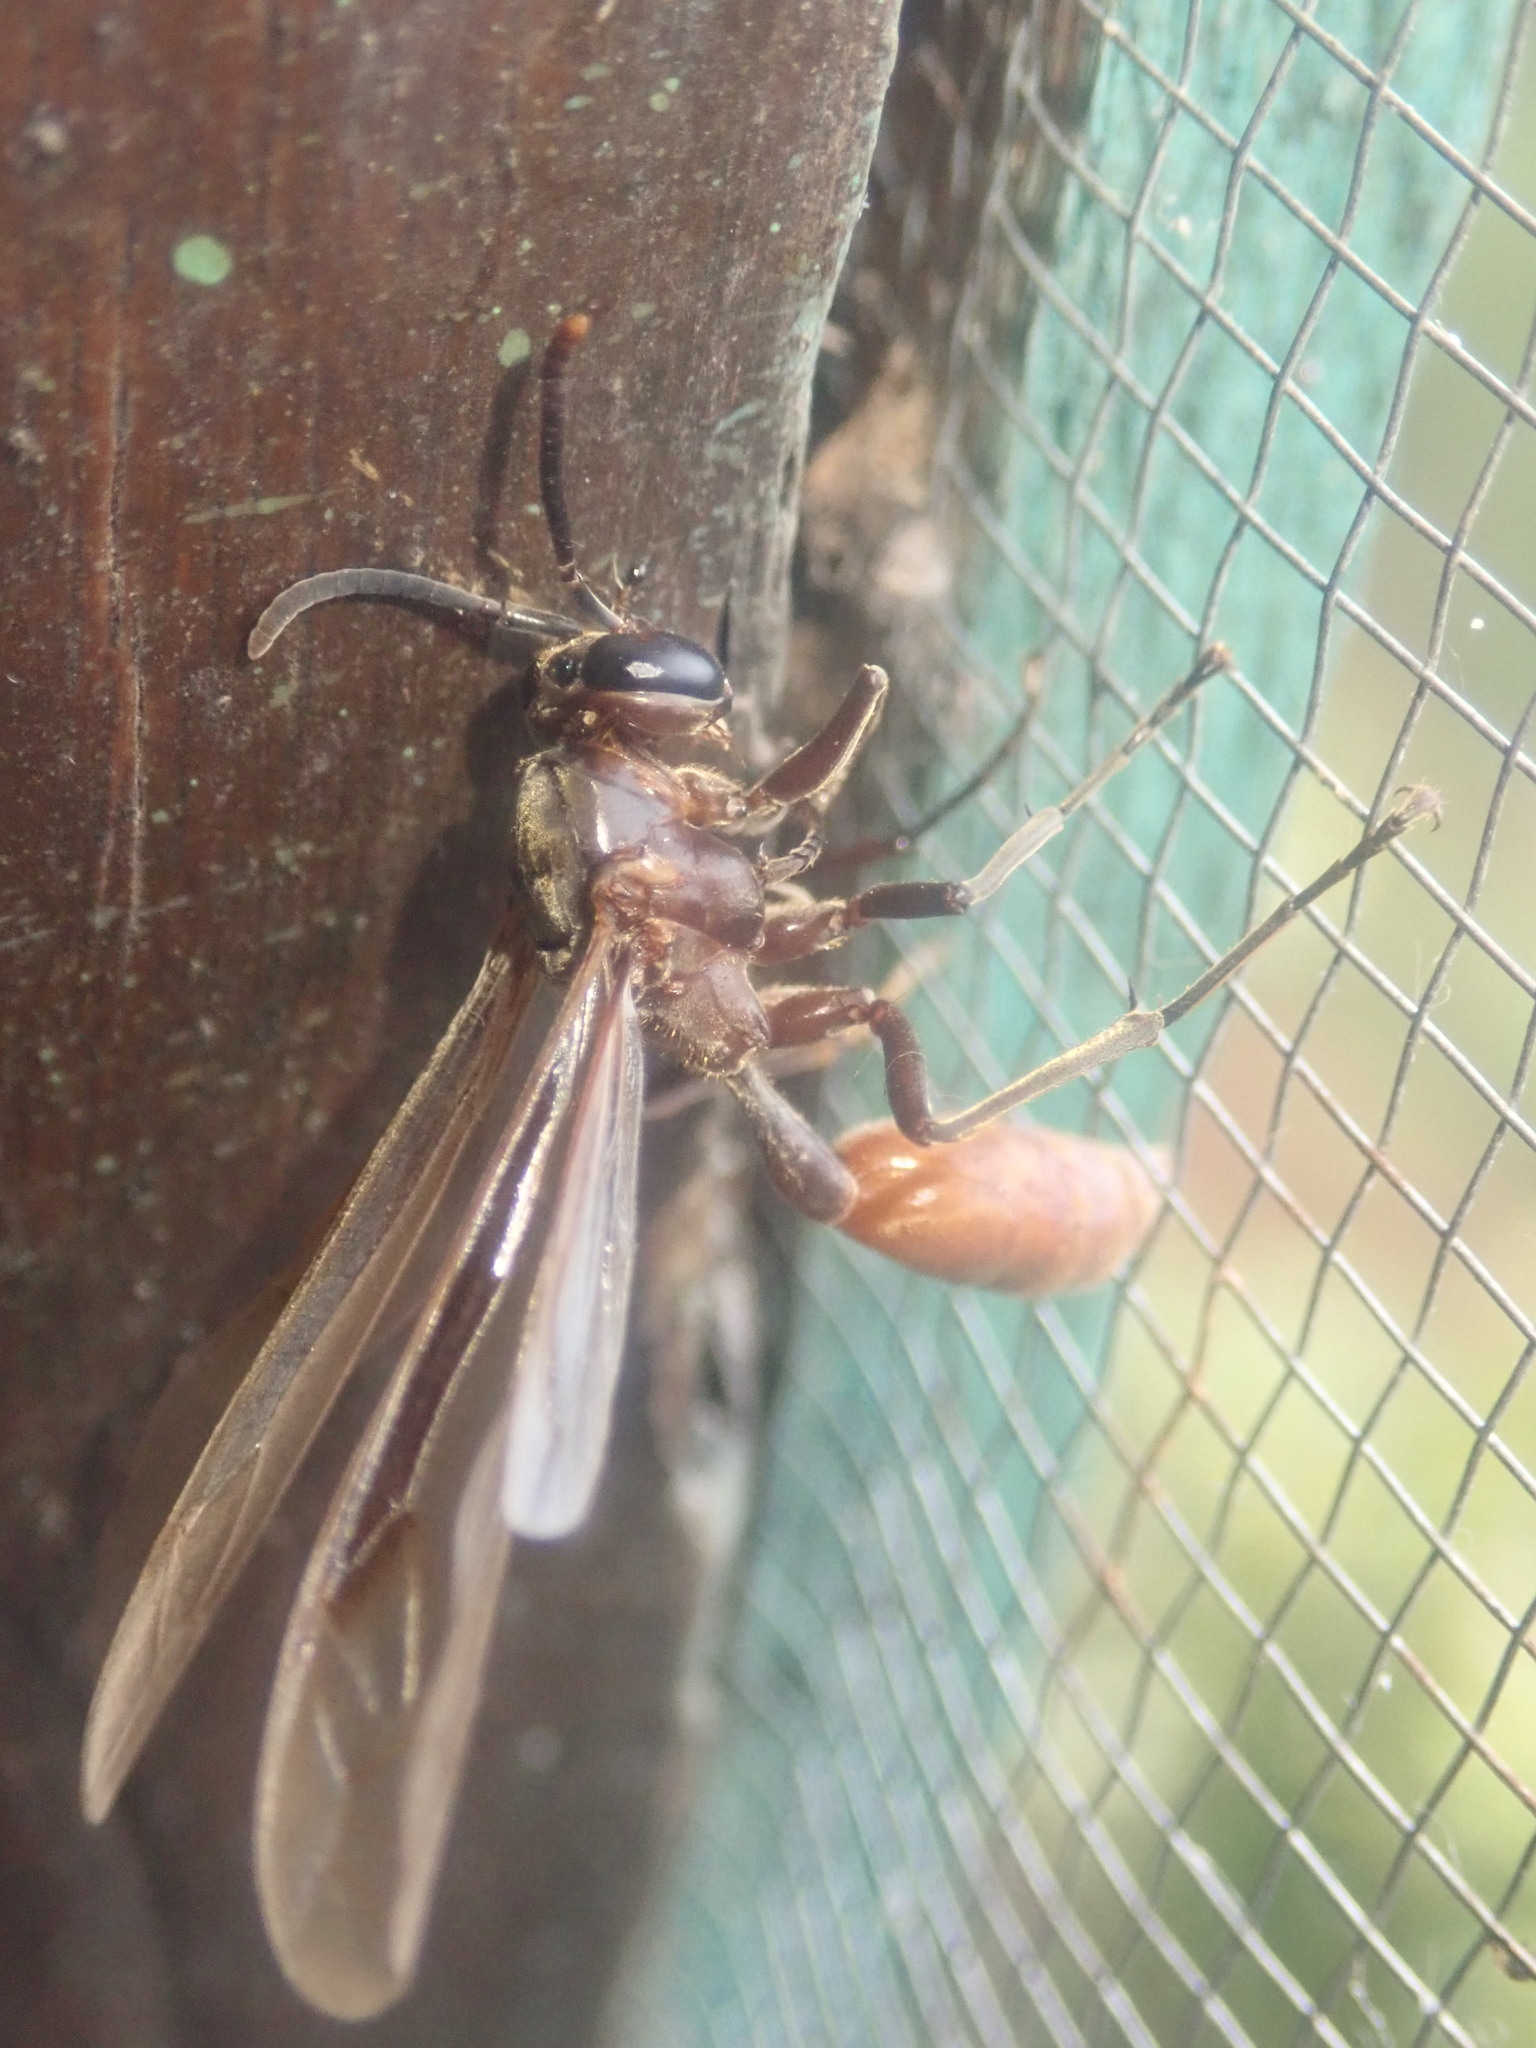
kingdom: Animalia
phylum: Arthropoda
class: Insecta
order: Hymenoptera
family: Vespidae
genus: Apoica
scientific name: Apoica thoracica
